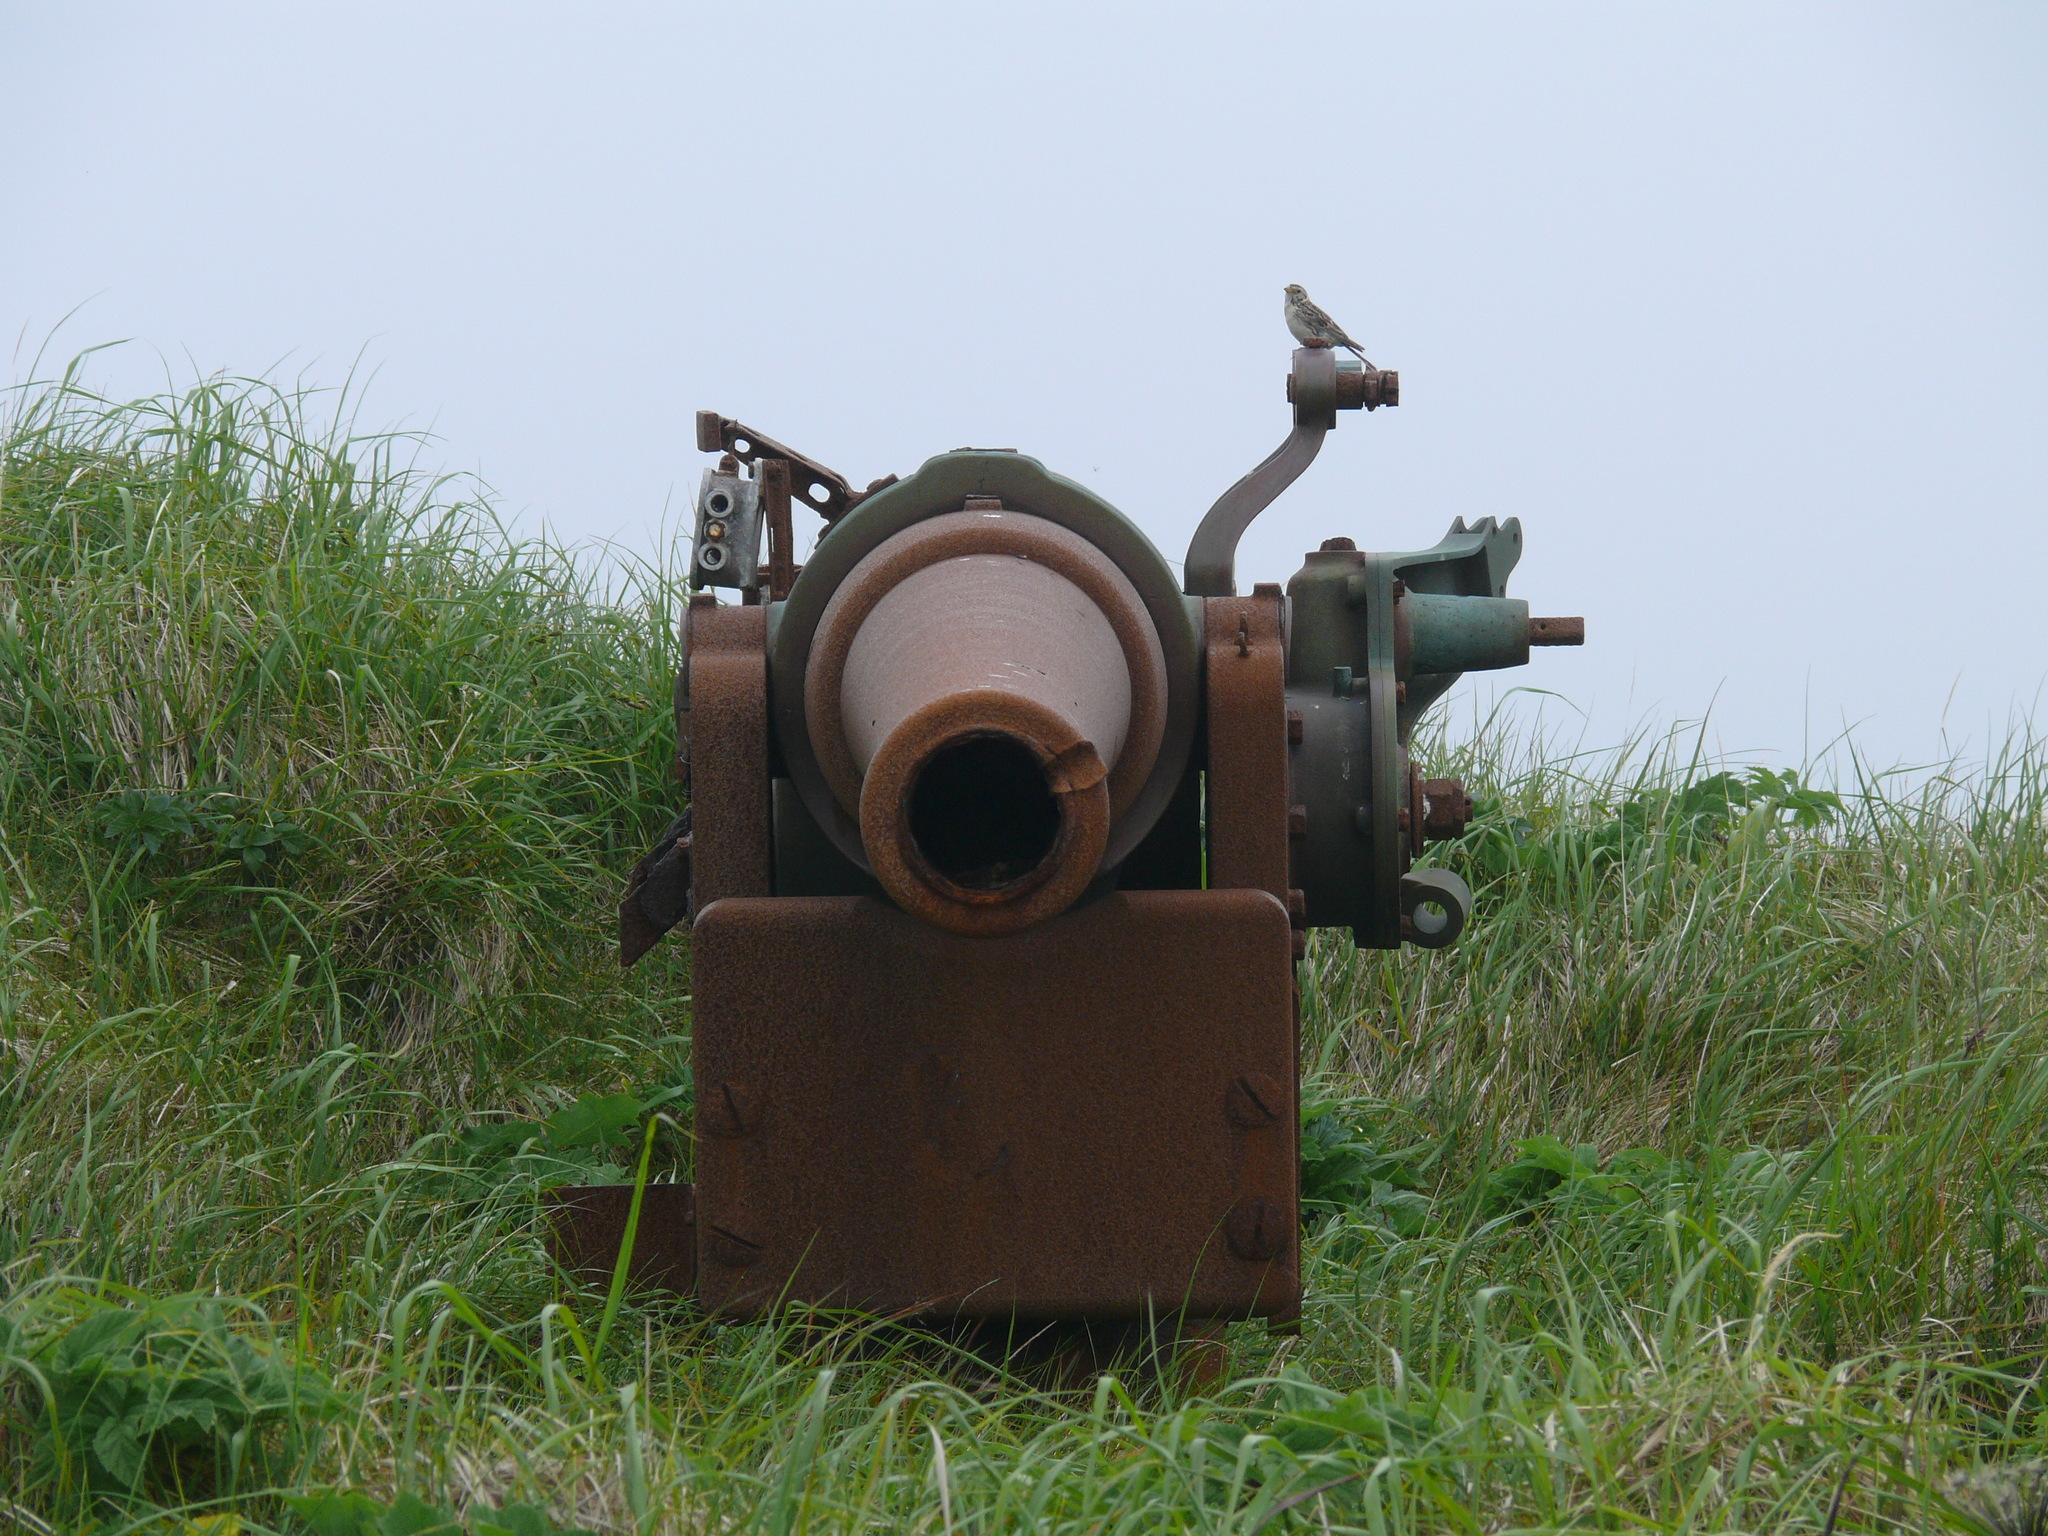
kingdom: Animalia
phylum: Chordata
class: Aves
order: Passeriformes
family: Calcariidae
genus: Calcarius
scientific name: Calcarius lapponicus
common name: Lapland longspur
